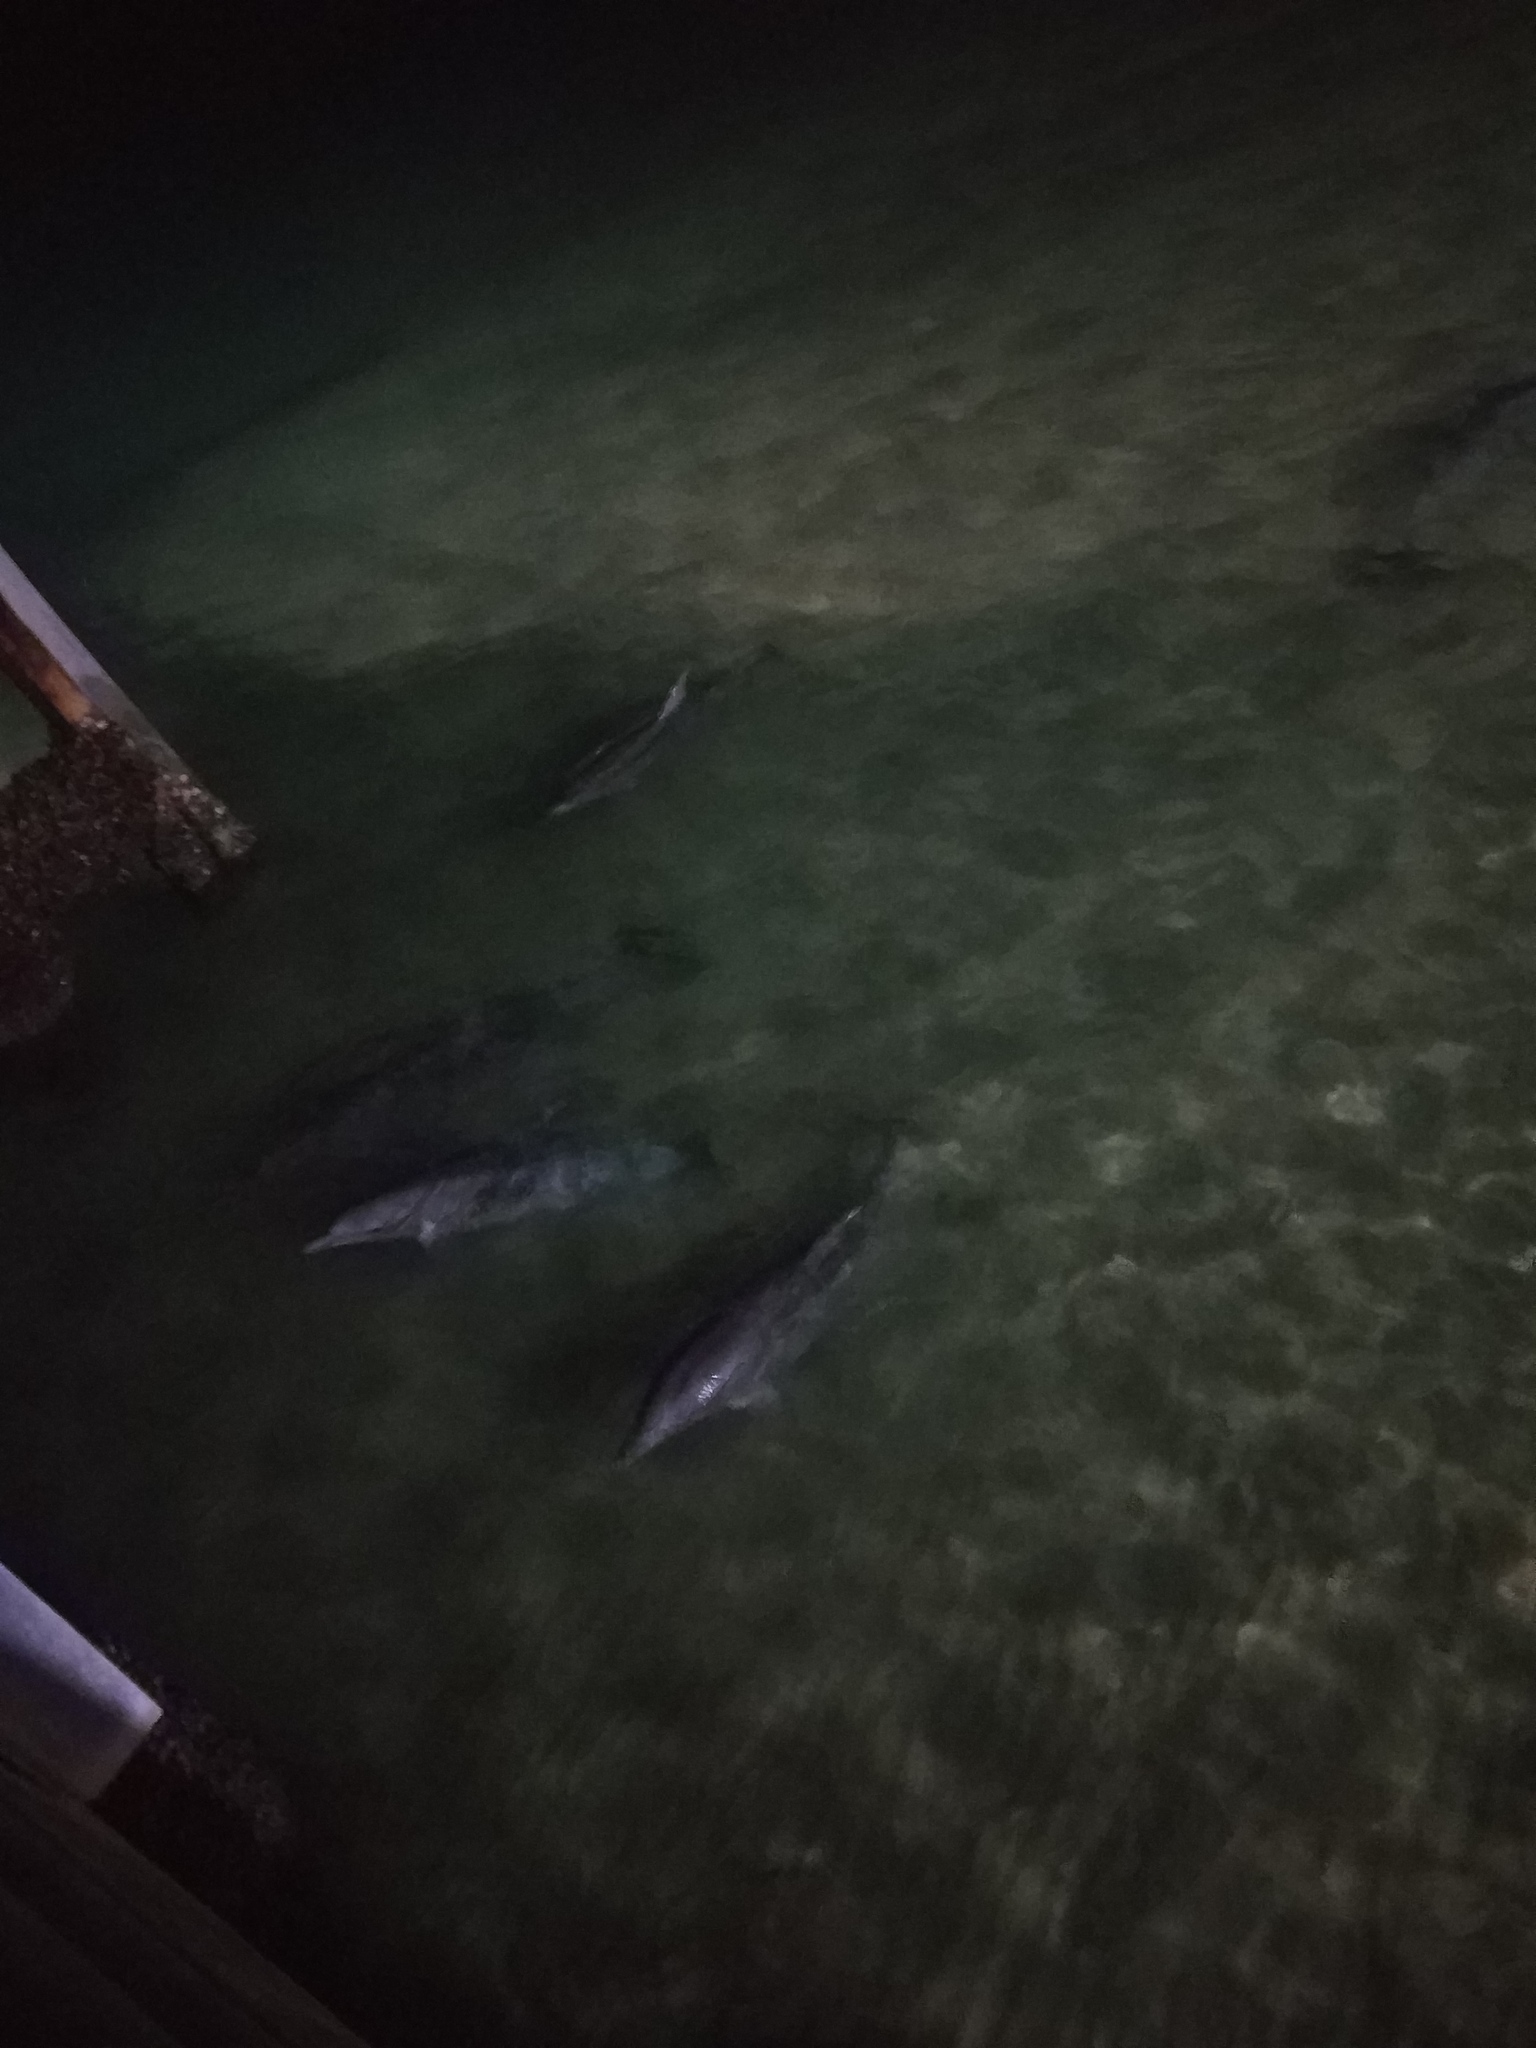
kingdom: Animalia
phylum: Chordata
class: Mammalia
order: Cetacea
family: Delphinidae
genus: Tursiops
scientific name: Tursiops aduncus
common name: Indo-pacific bottlenose dolphin
